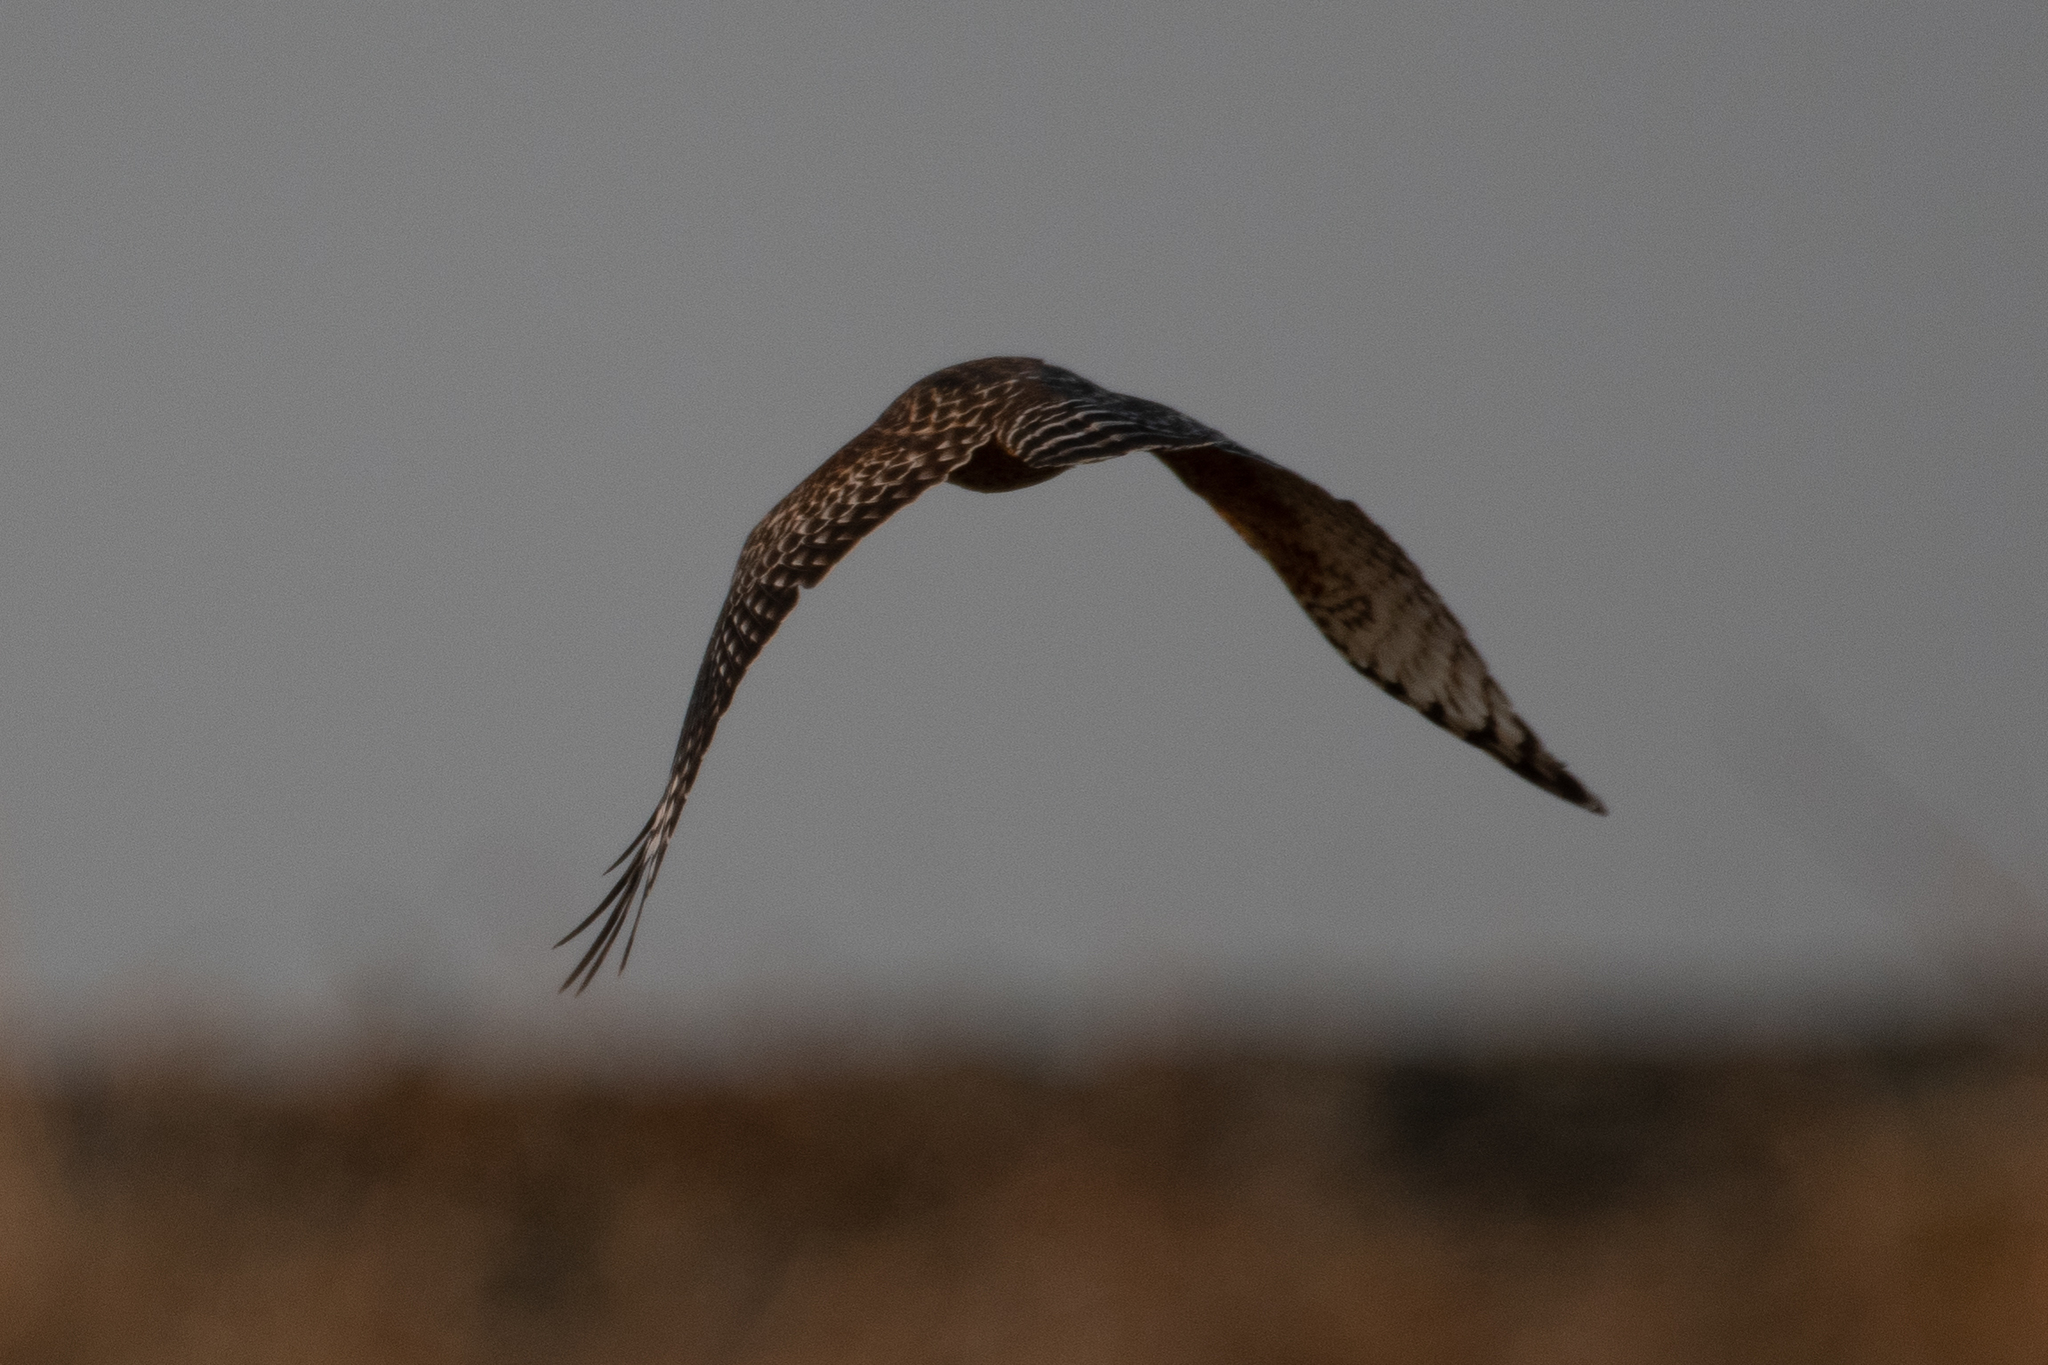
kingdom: Animalia
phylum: Chordata
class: Aves
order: Accipitriformes
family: Accipitridae
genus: Buteo
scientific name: Buteo lineatus
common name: Red-shouldered hawk
